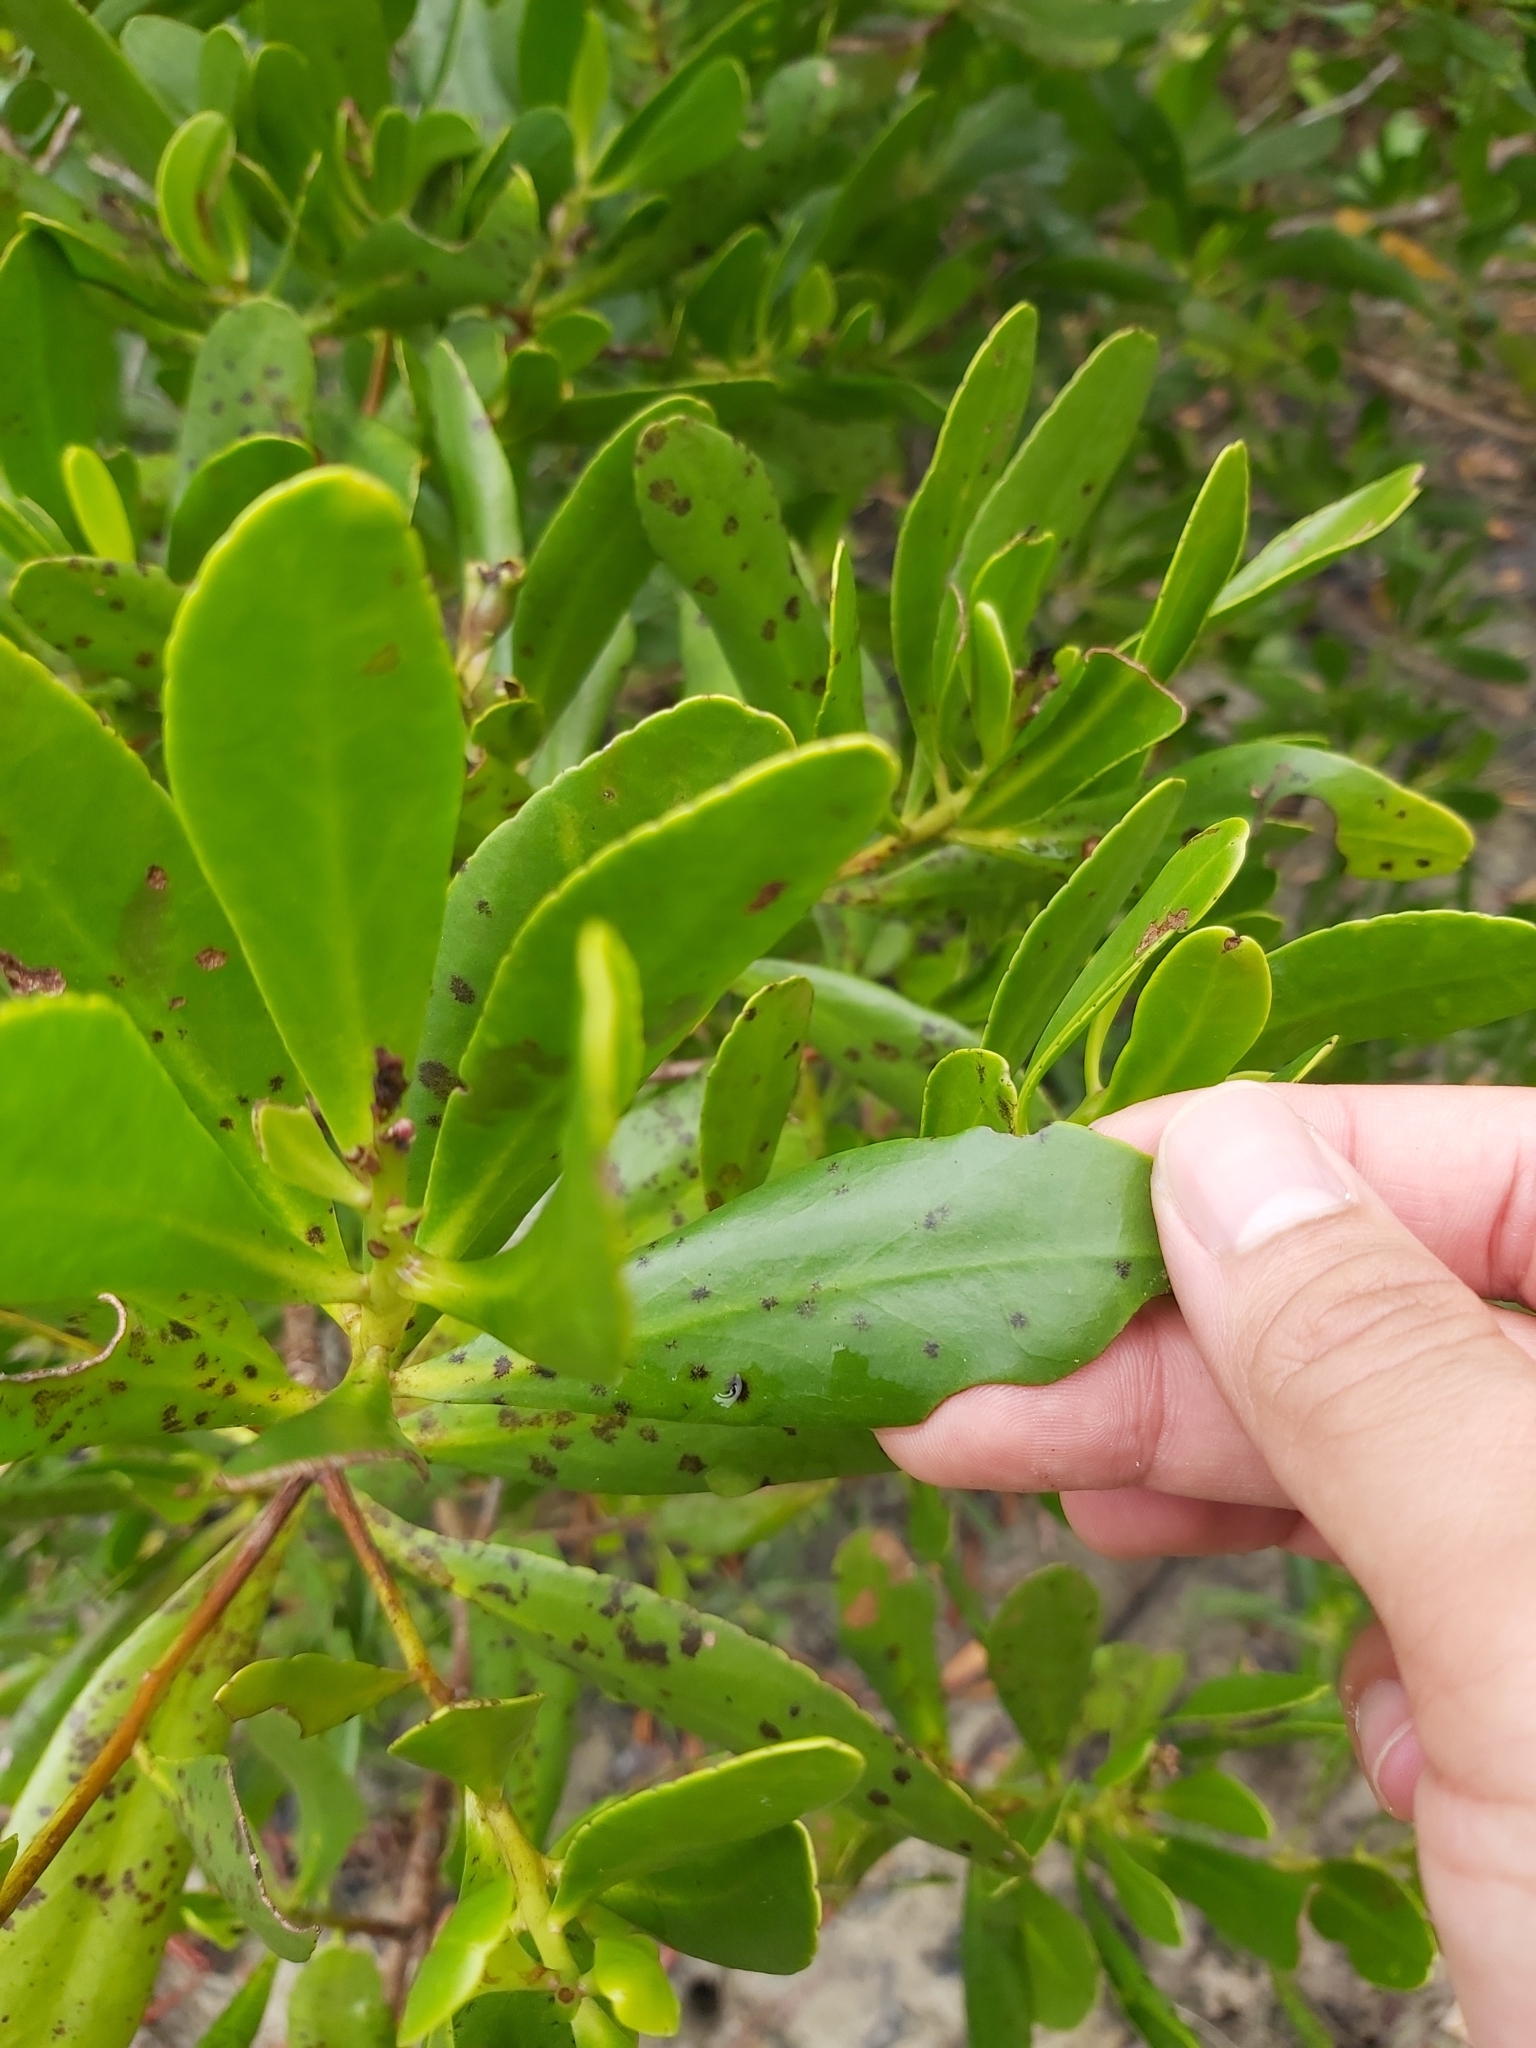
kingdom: Plantae
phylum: Tracheophyta
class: Magnoliopsida
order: Myrtales
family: Combretaceae
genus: Lumnitzera
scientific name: Lumnitzera littorea
